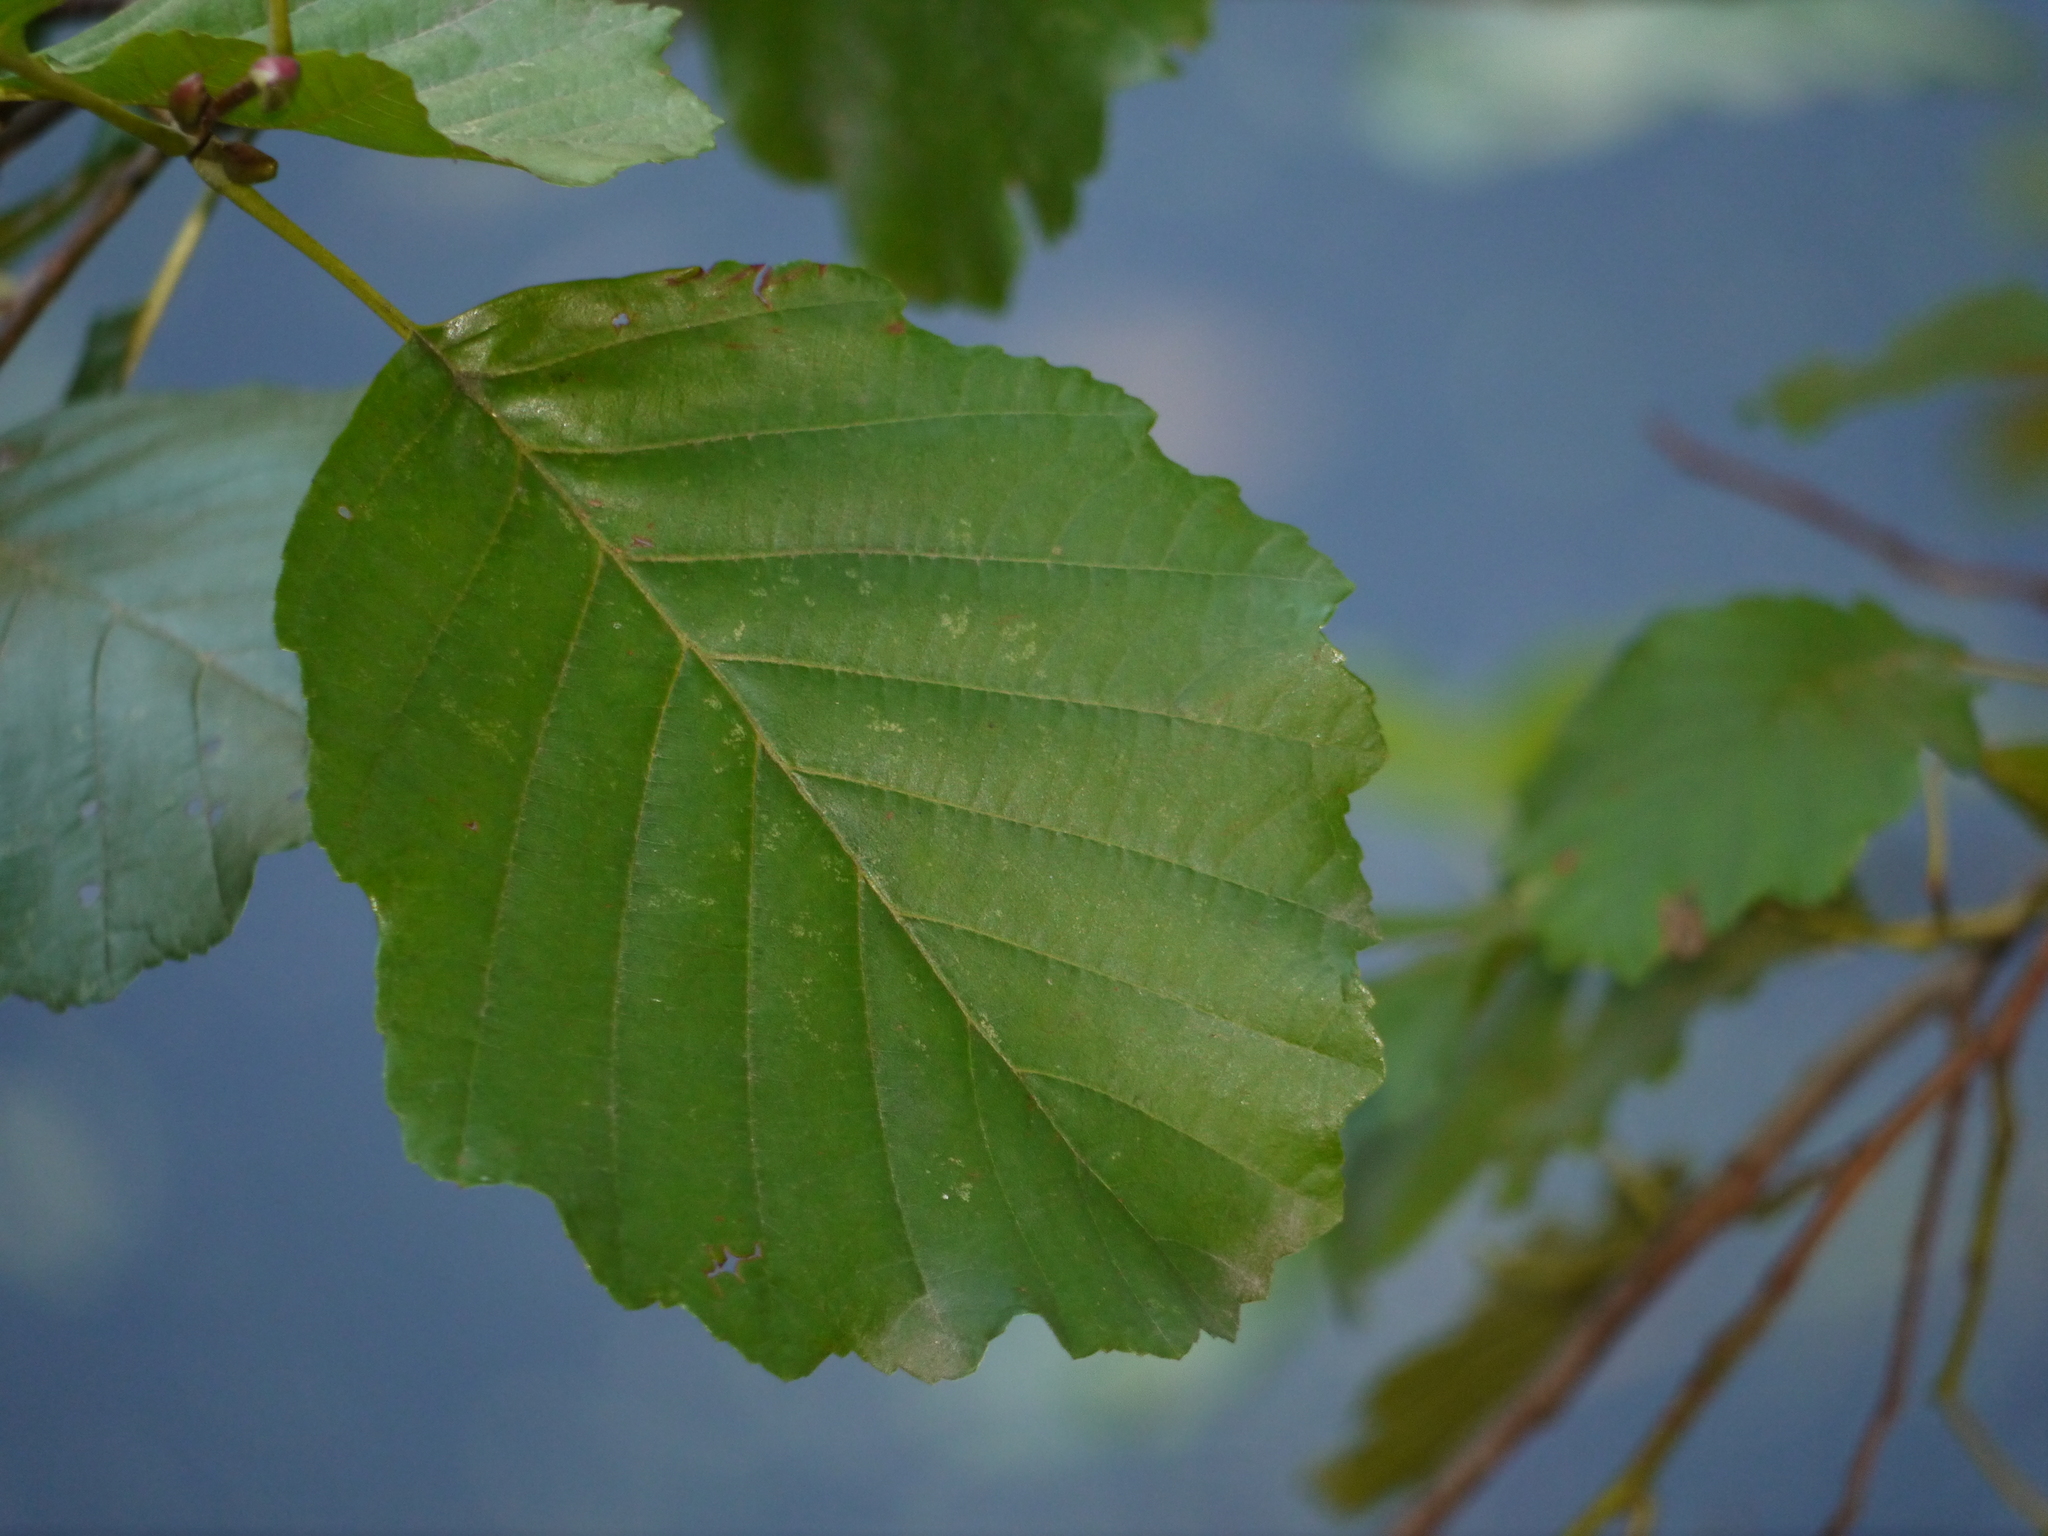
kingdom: Plantae
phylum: Tracheophyta
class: Magnoliopsida
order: Fagales
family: Betulaceae
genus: Alnus
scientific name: Alnus glutinosa
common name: Black alder
